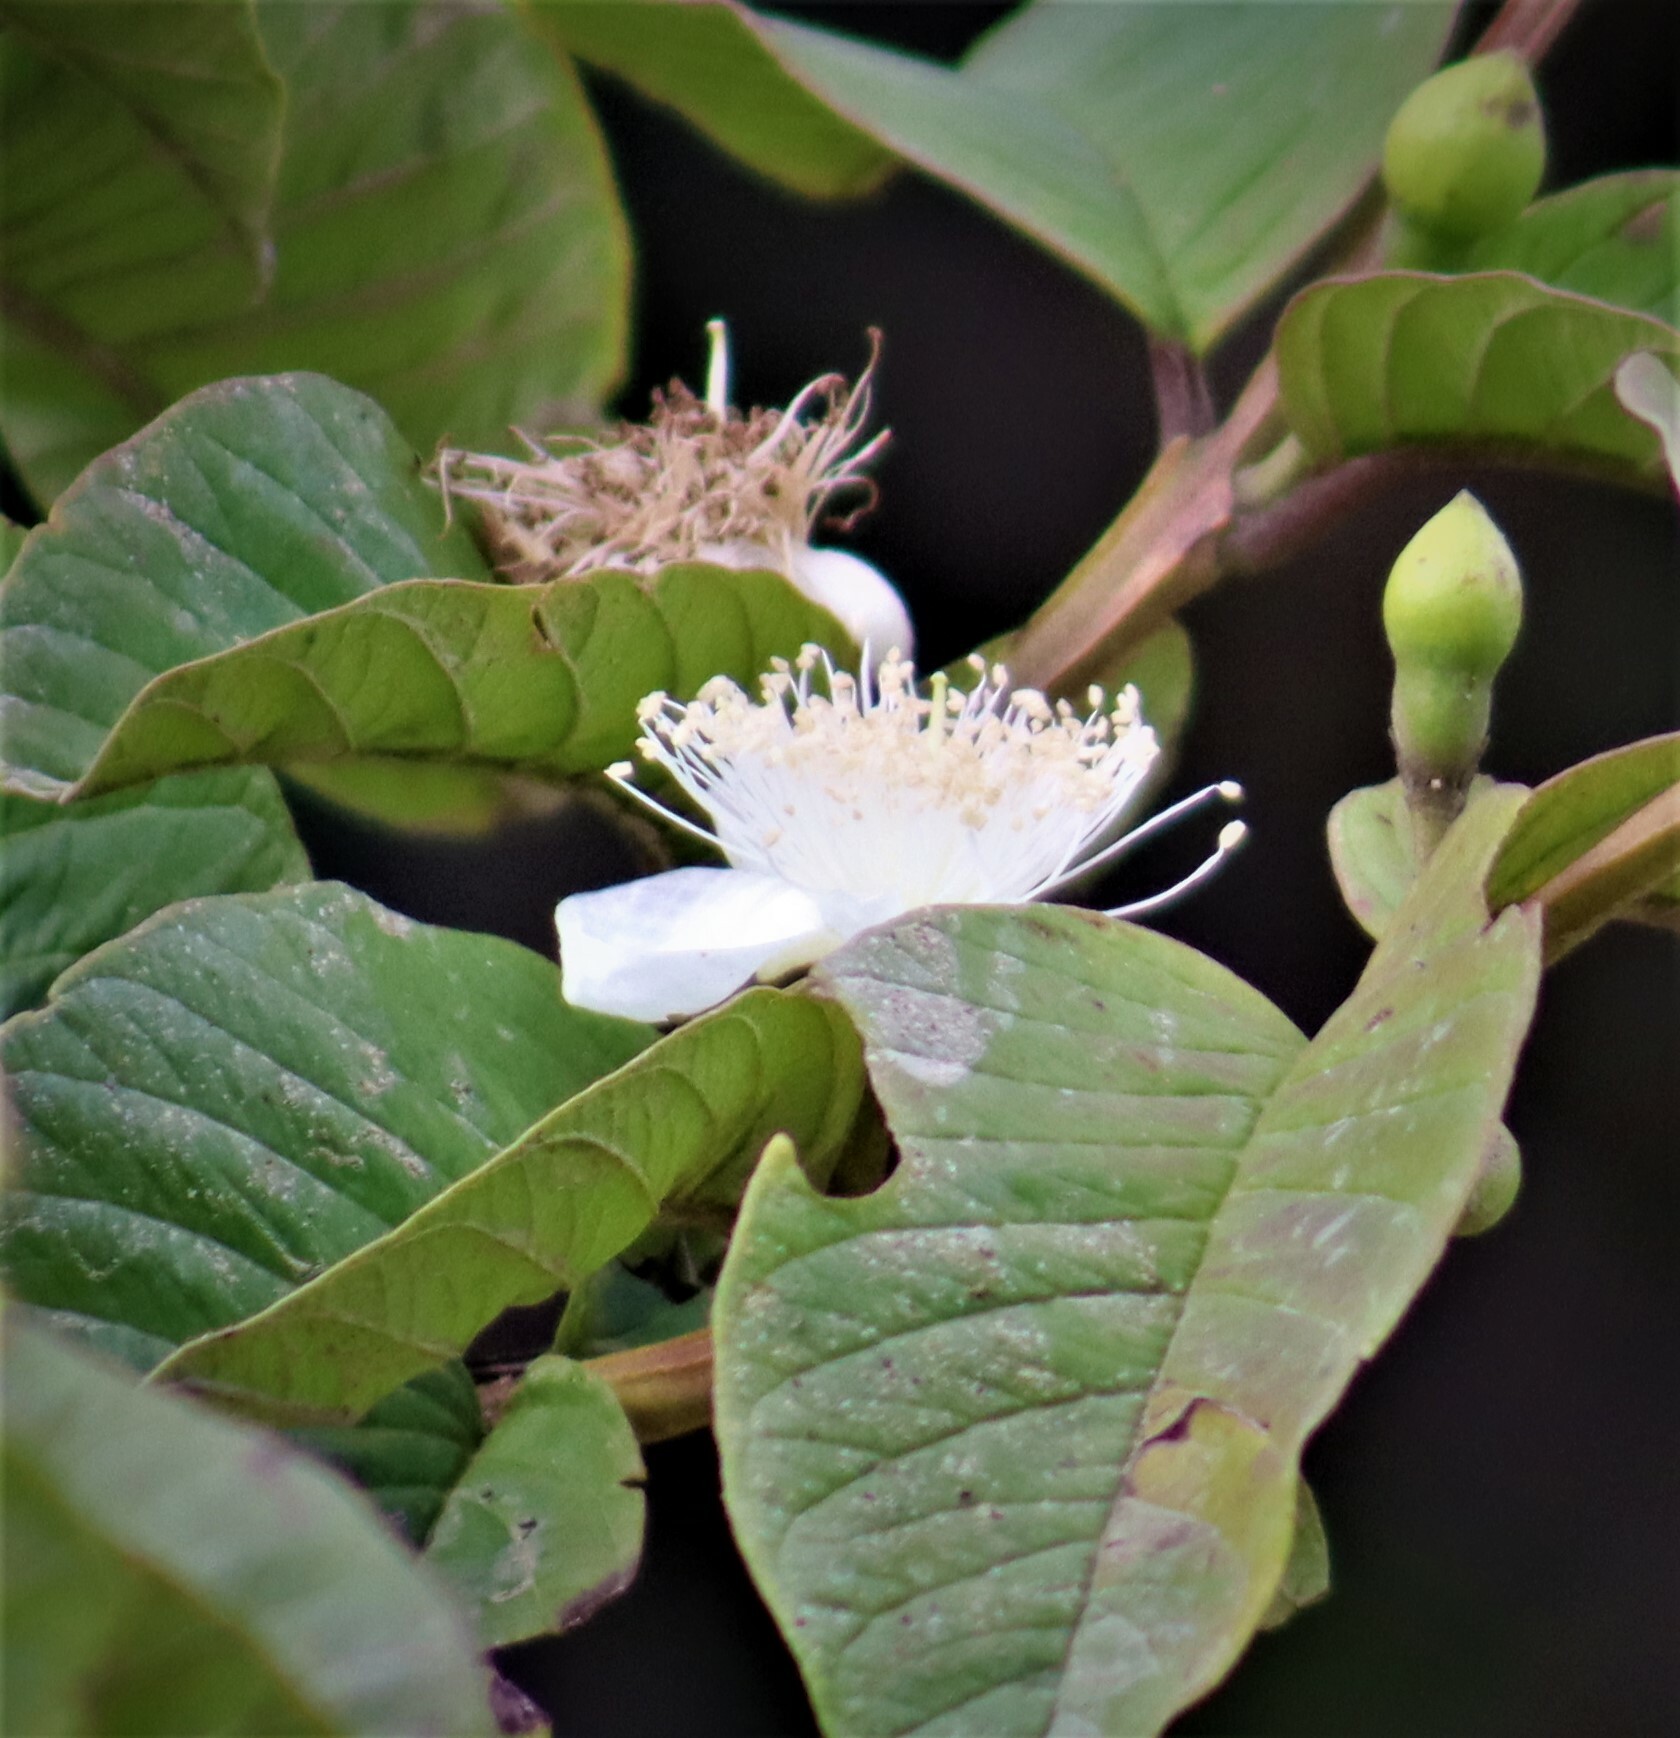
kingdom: Plantae
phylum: Tracheophyta
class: Magnoliopsida
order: Myrtales
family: Myrtaceae
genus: Psidium
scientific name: Psidium guajava
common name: Guava
